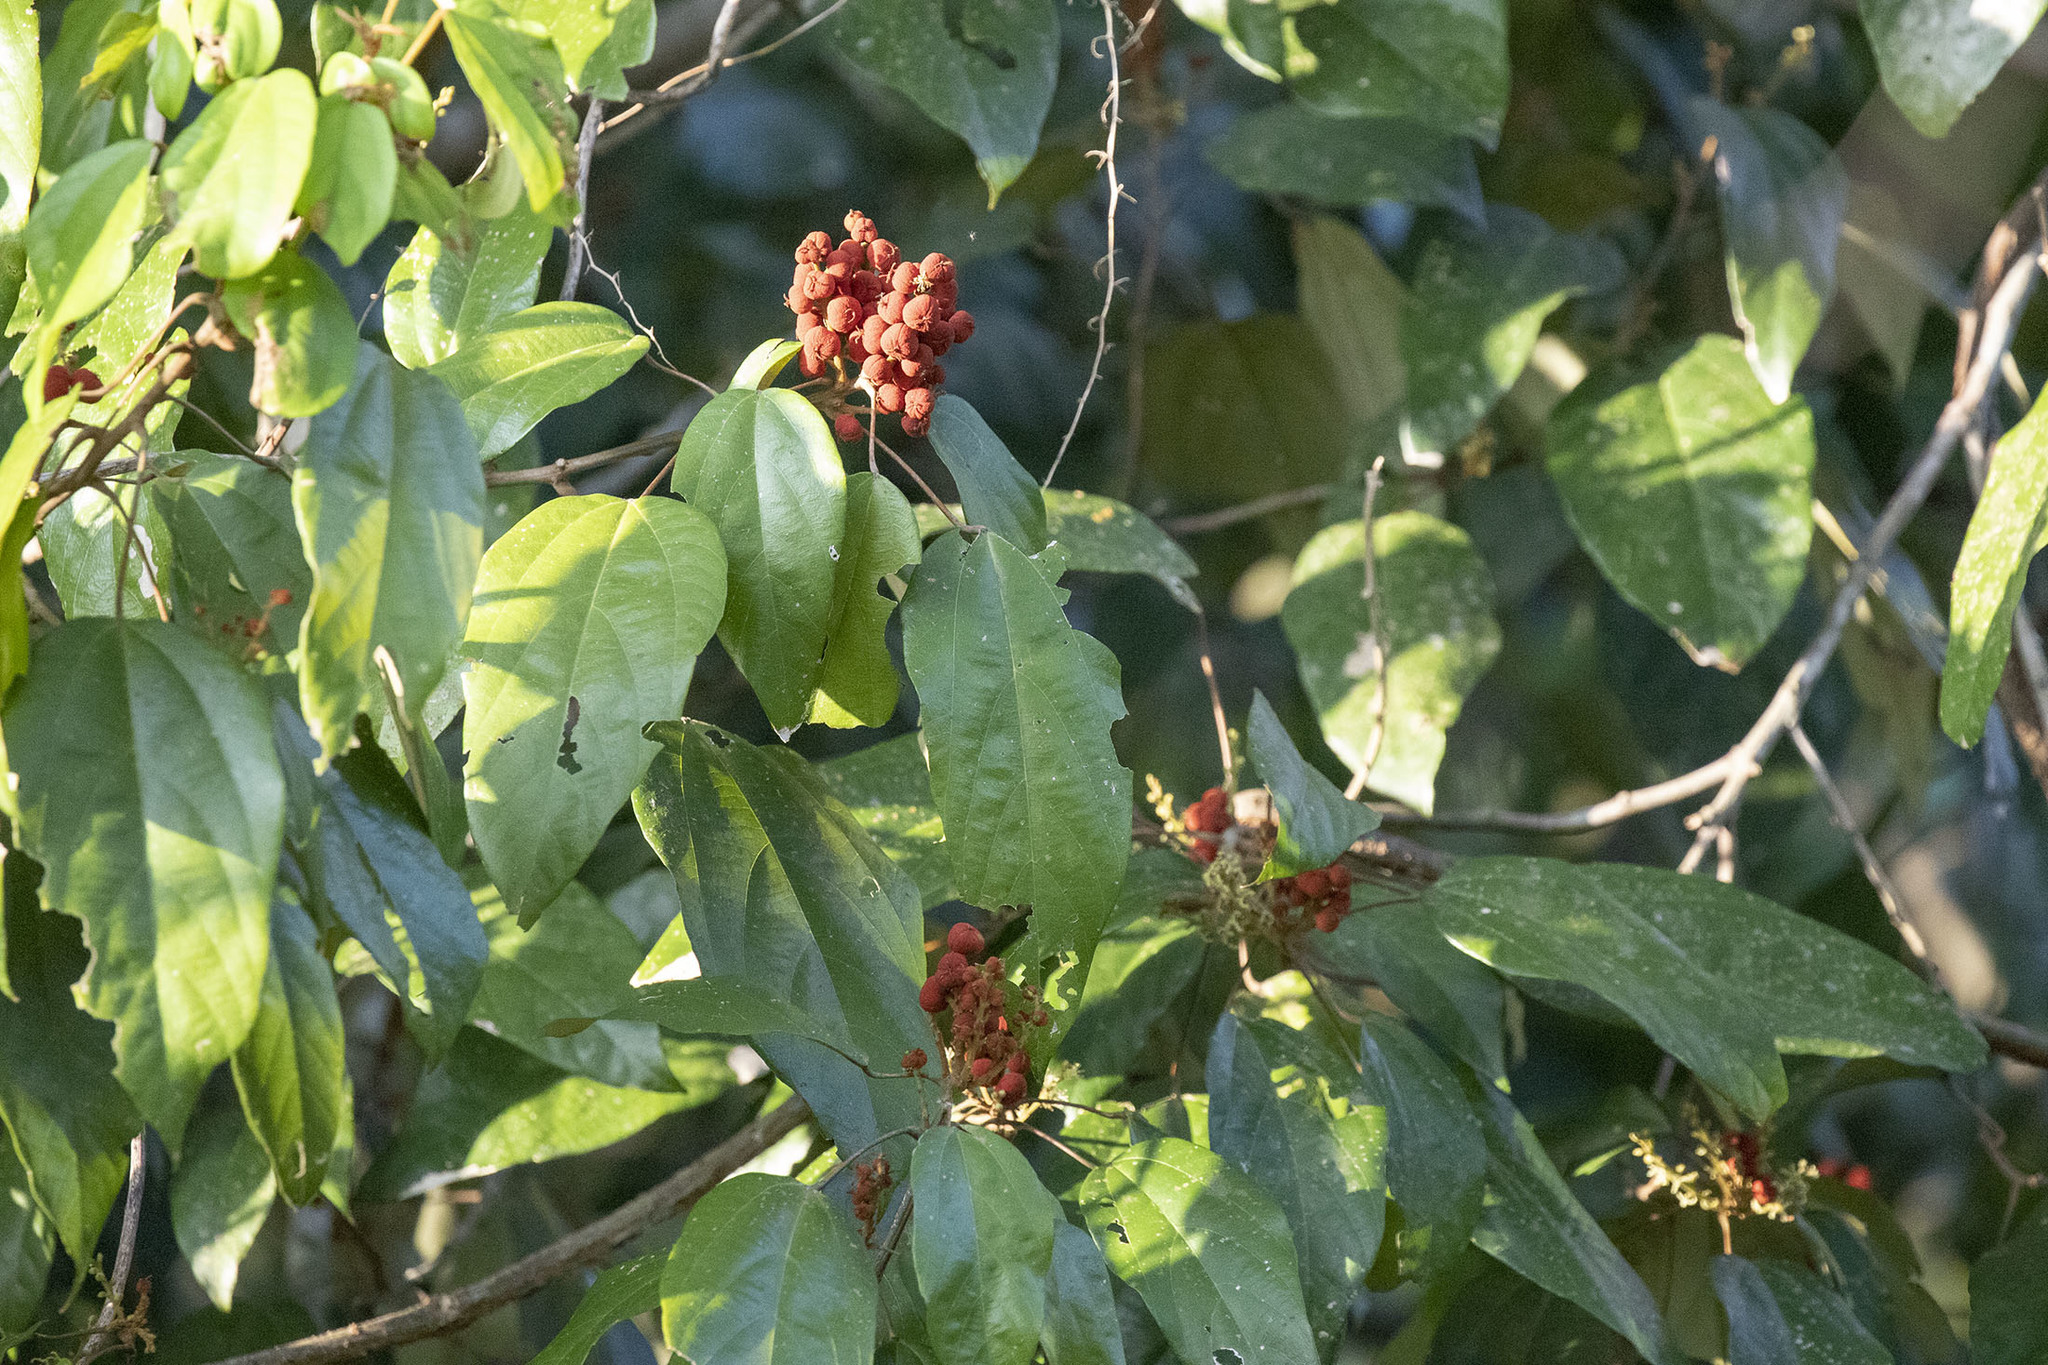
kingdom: Plantae
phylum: Tracheophyta
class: Magnoliopsida
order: Malpighiales
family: Euphorbiaceae
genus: Mallotus
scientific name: Mallotus philippensis
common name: Kamala tree
